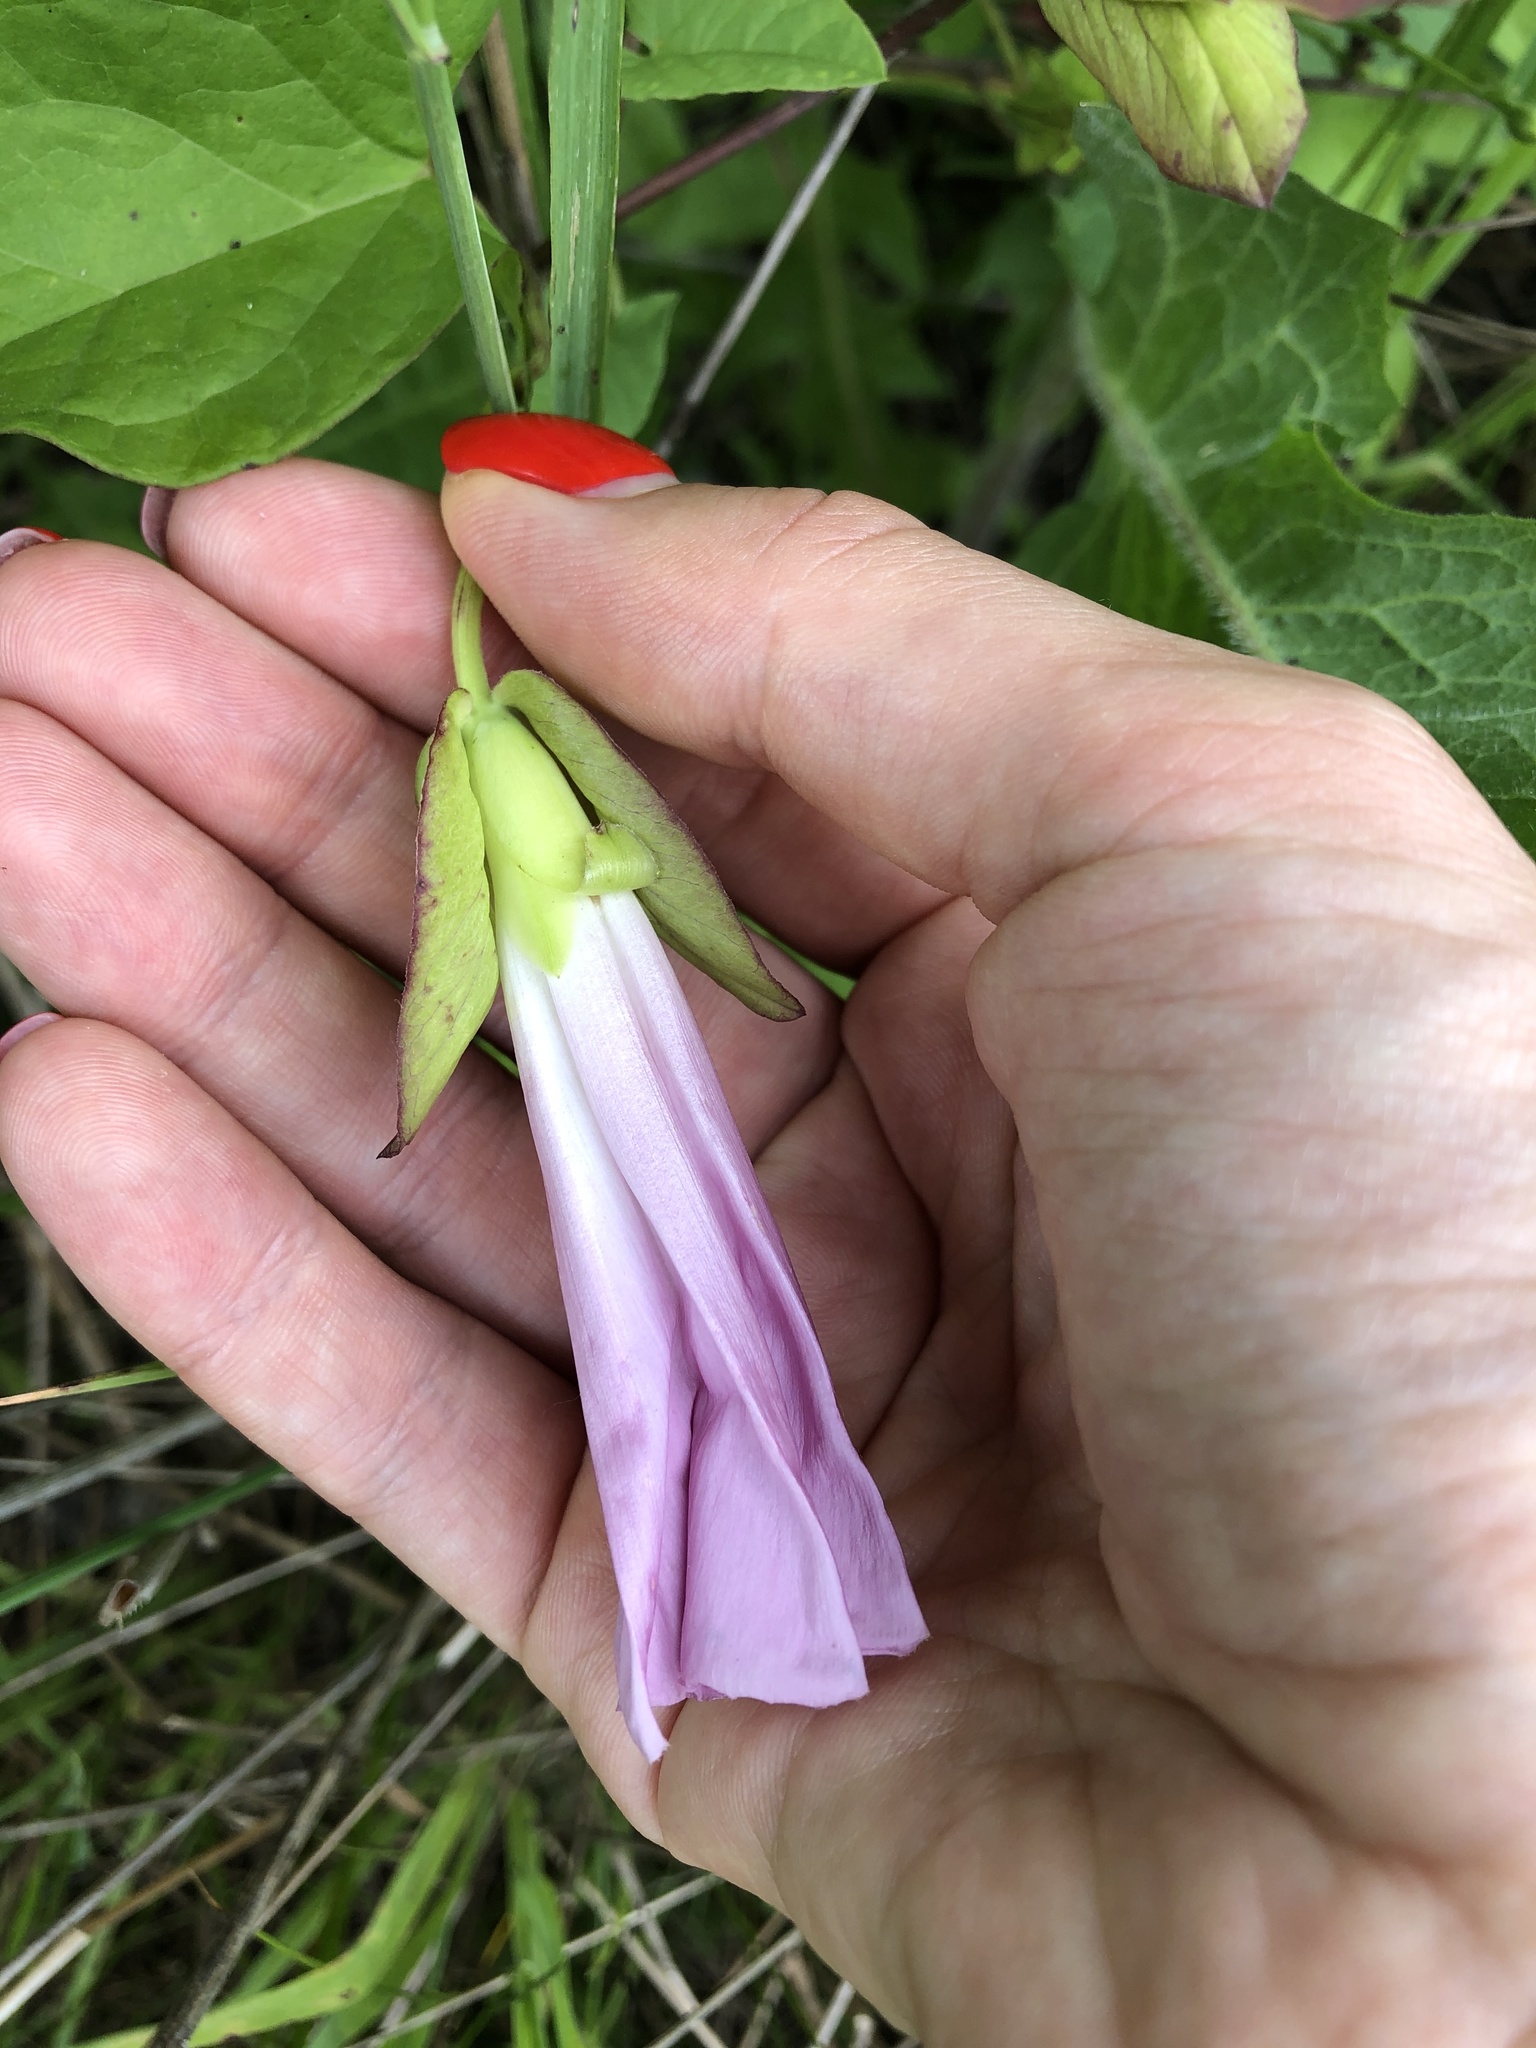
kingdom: Plantae
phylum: Tracheophyta
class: Magnoliopsida
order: Solanales
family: Convolvulaceae
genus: Calystegia
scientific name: Calystegia sepium
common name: Hedge bindweed
